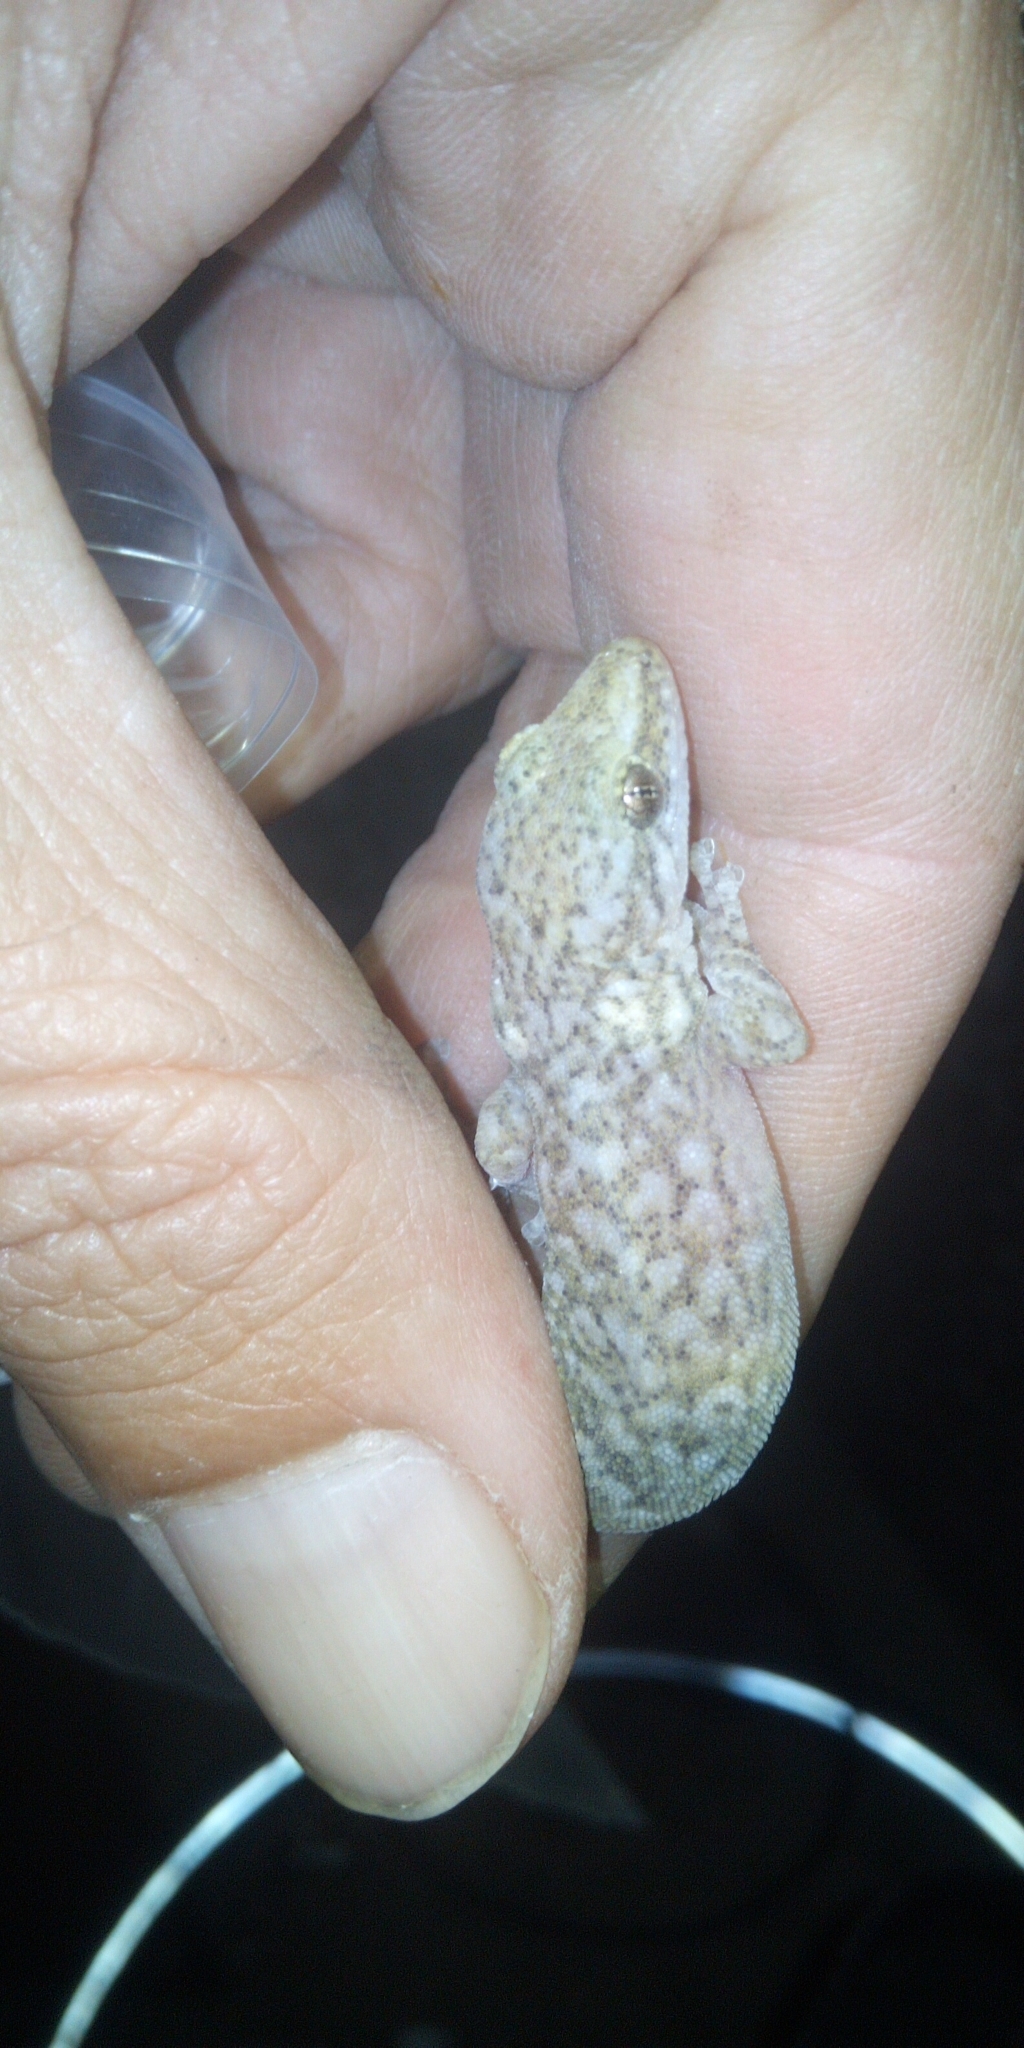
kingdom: Animalia
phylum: Chordata
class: Squamata
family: Gekkonidae
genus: Afrogecko
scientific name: Afrogecko porphyreus
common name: Marbled leaf-toed gecko
